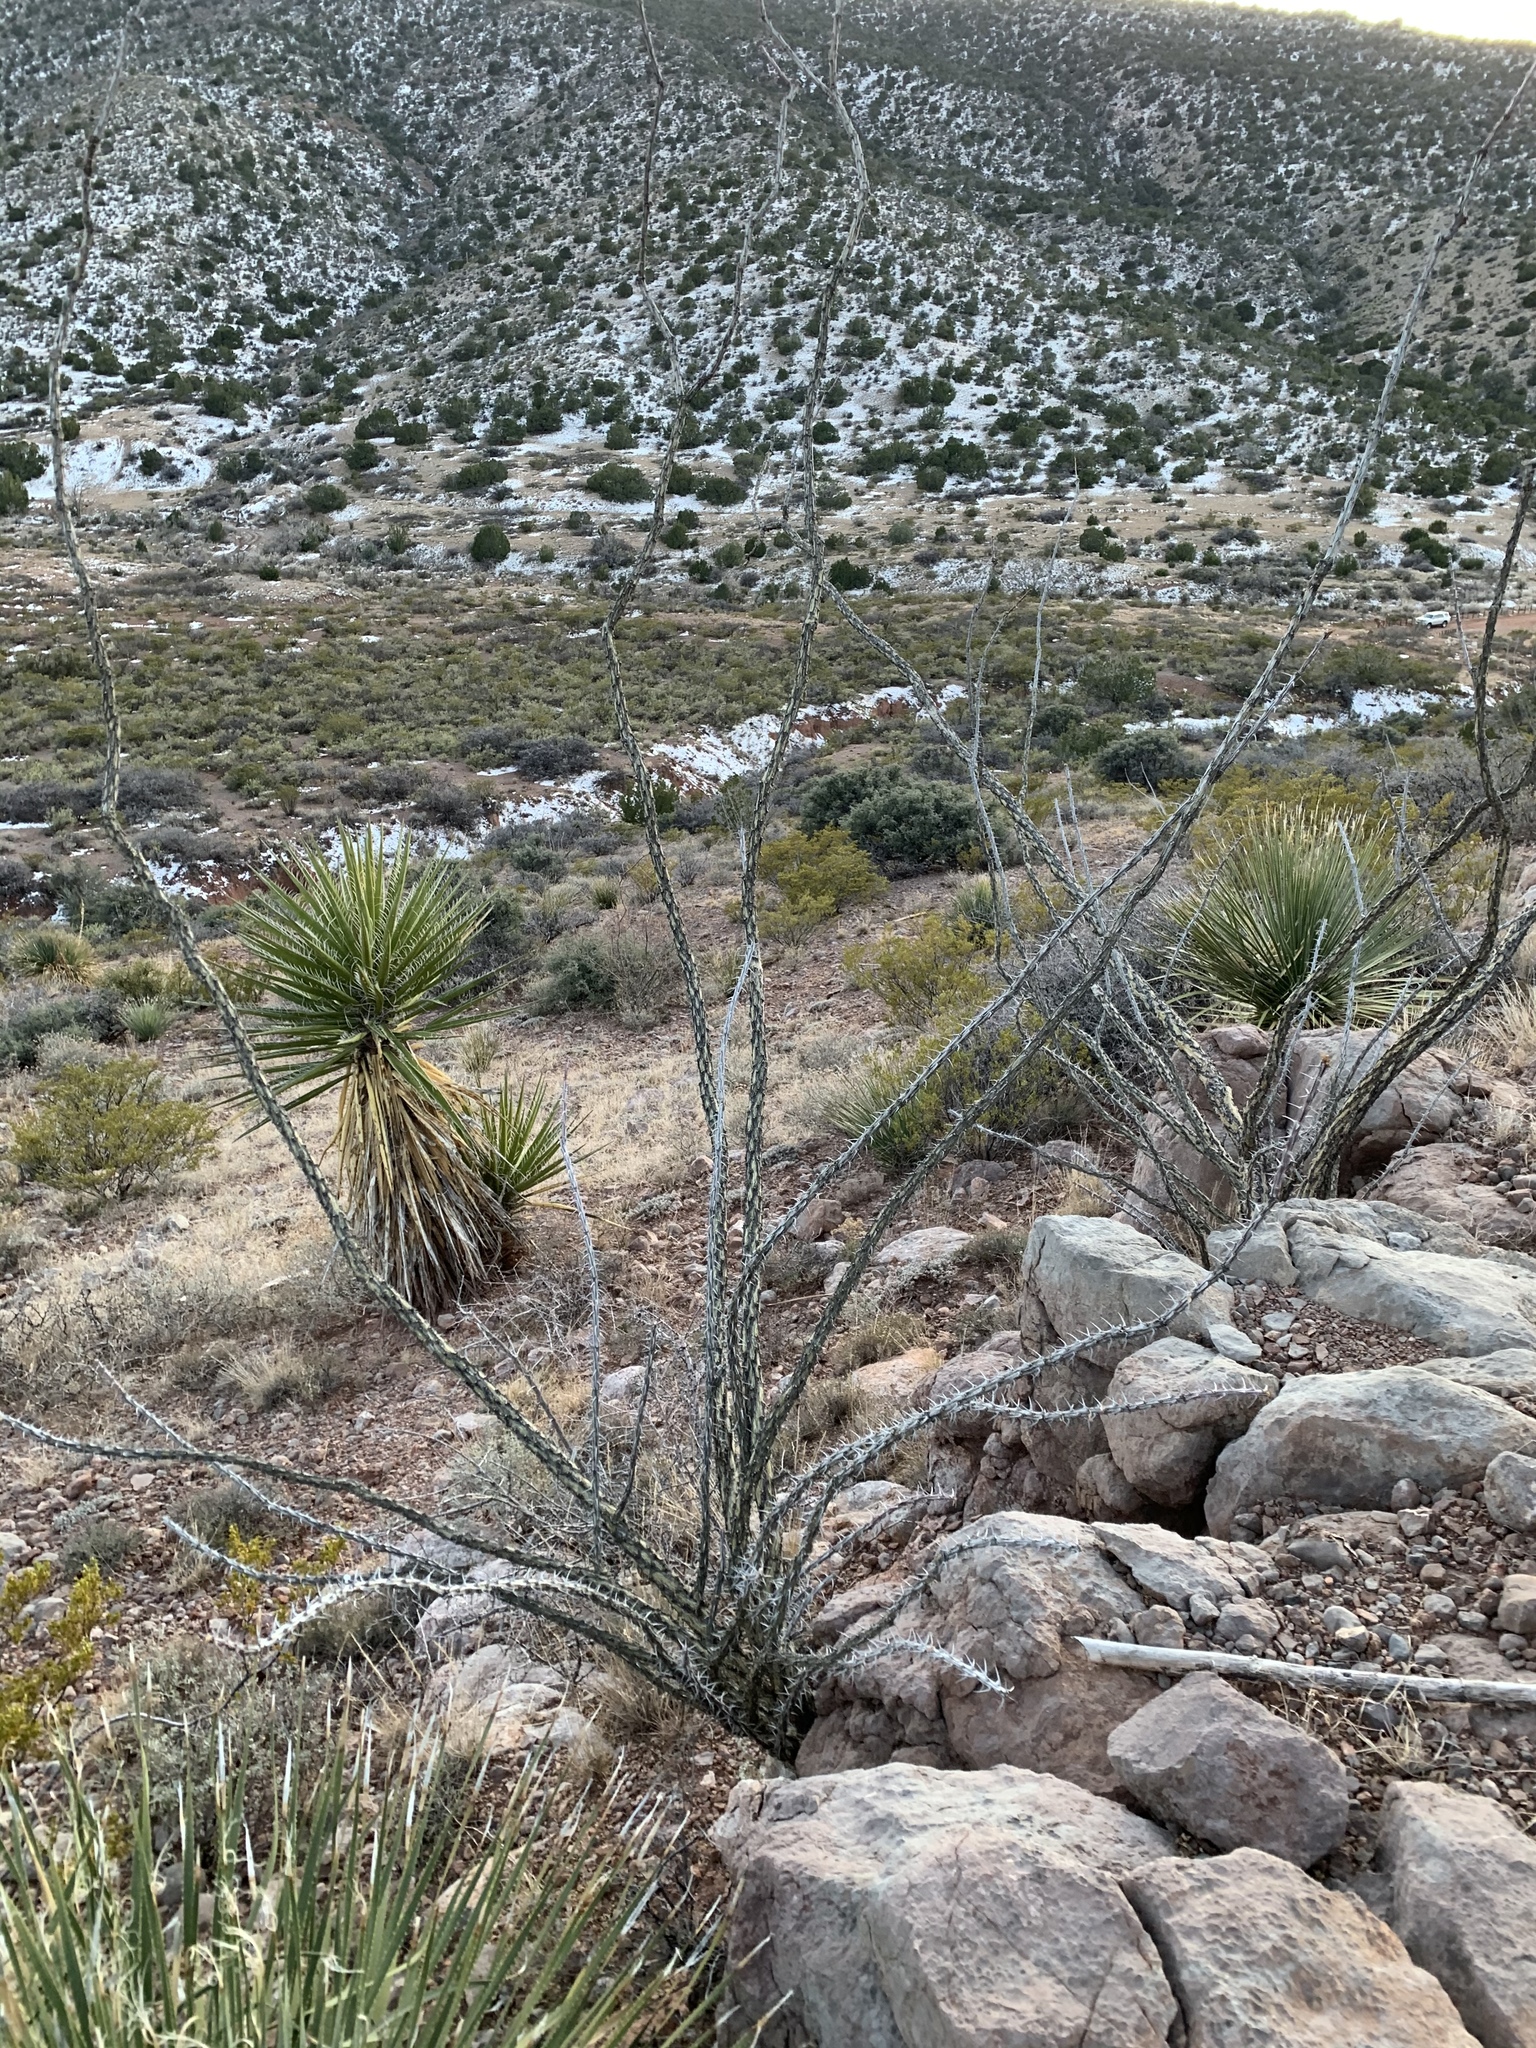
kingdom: Plantae
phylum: Tracheophyta
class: Magnoliopsida
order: Ericales
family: Fouquieriaceae
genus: Fouquieria
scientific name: Fouquieria splendens
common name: Vine-cactus
